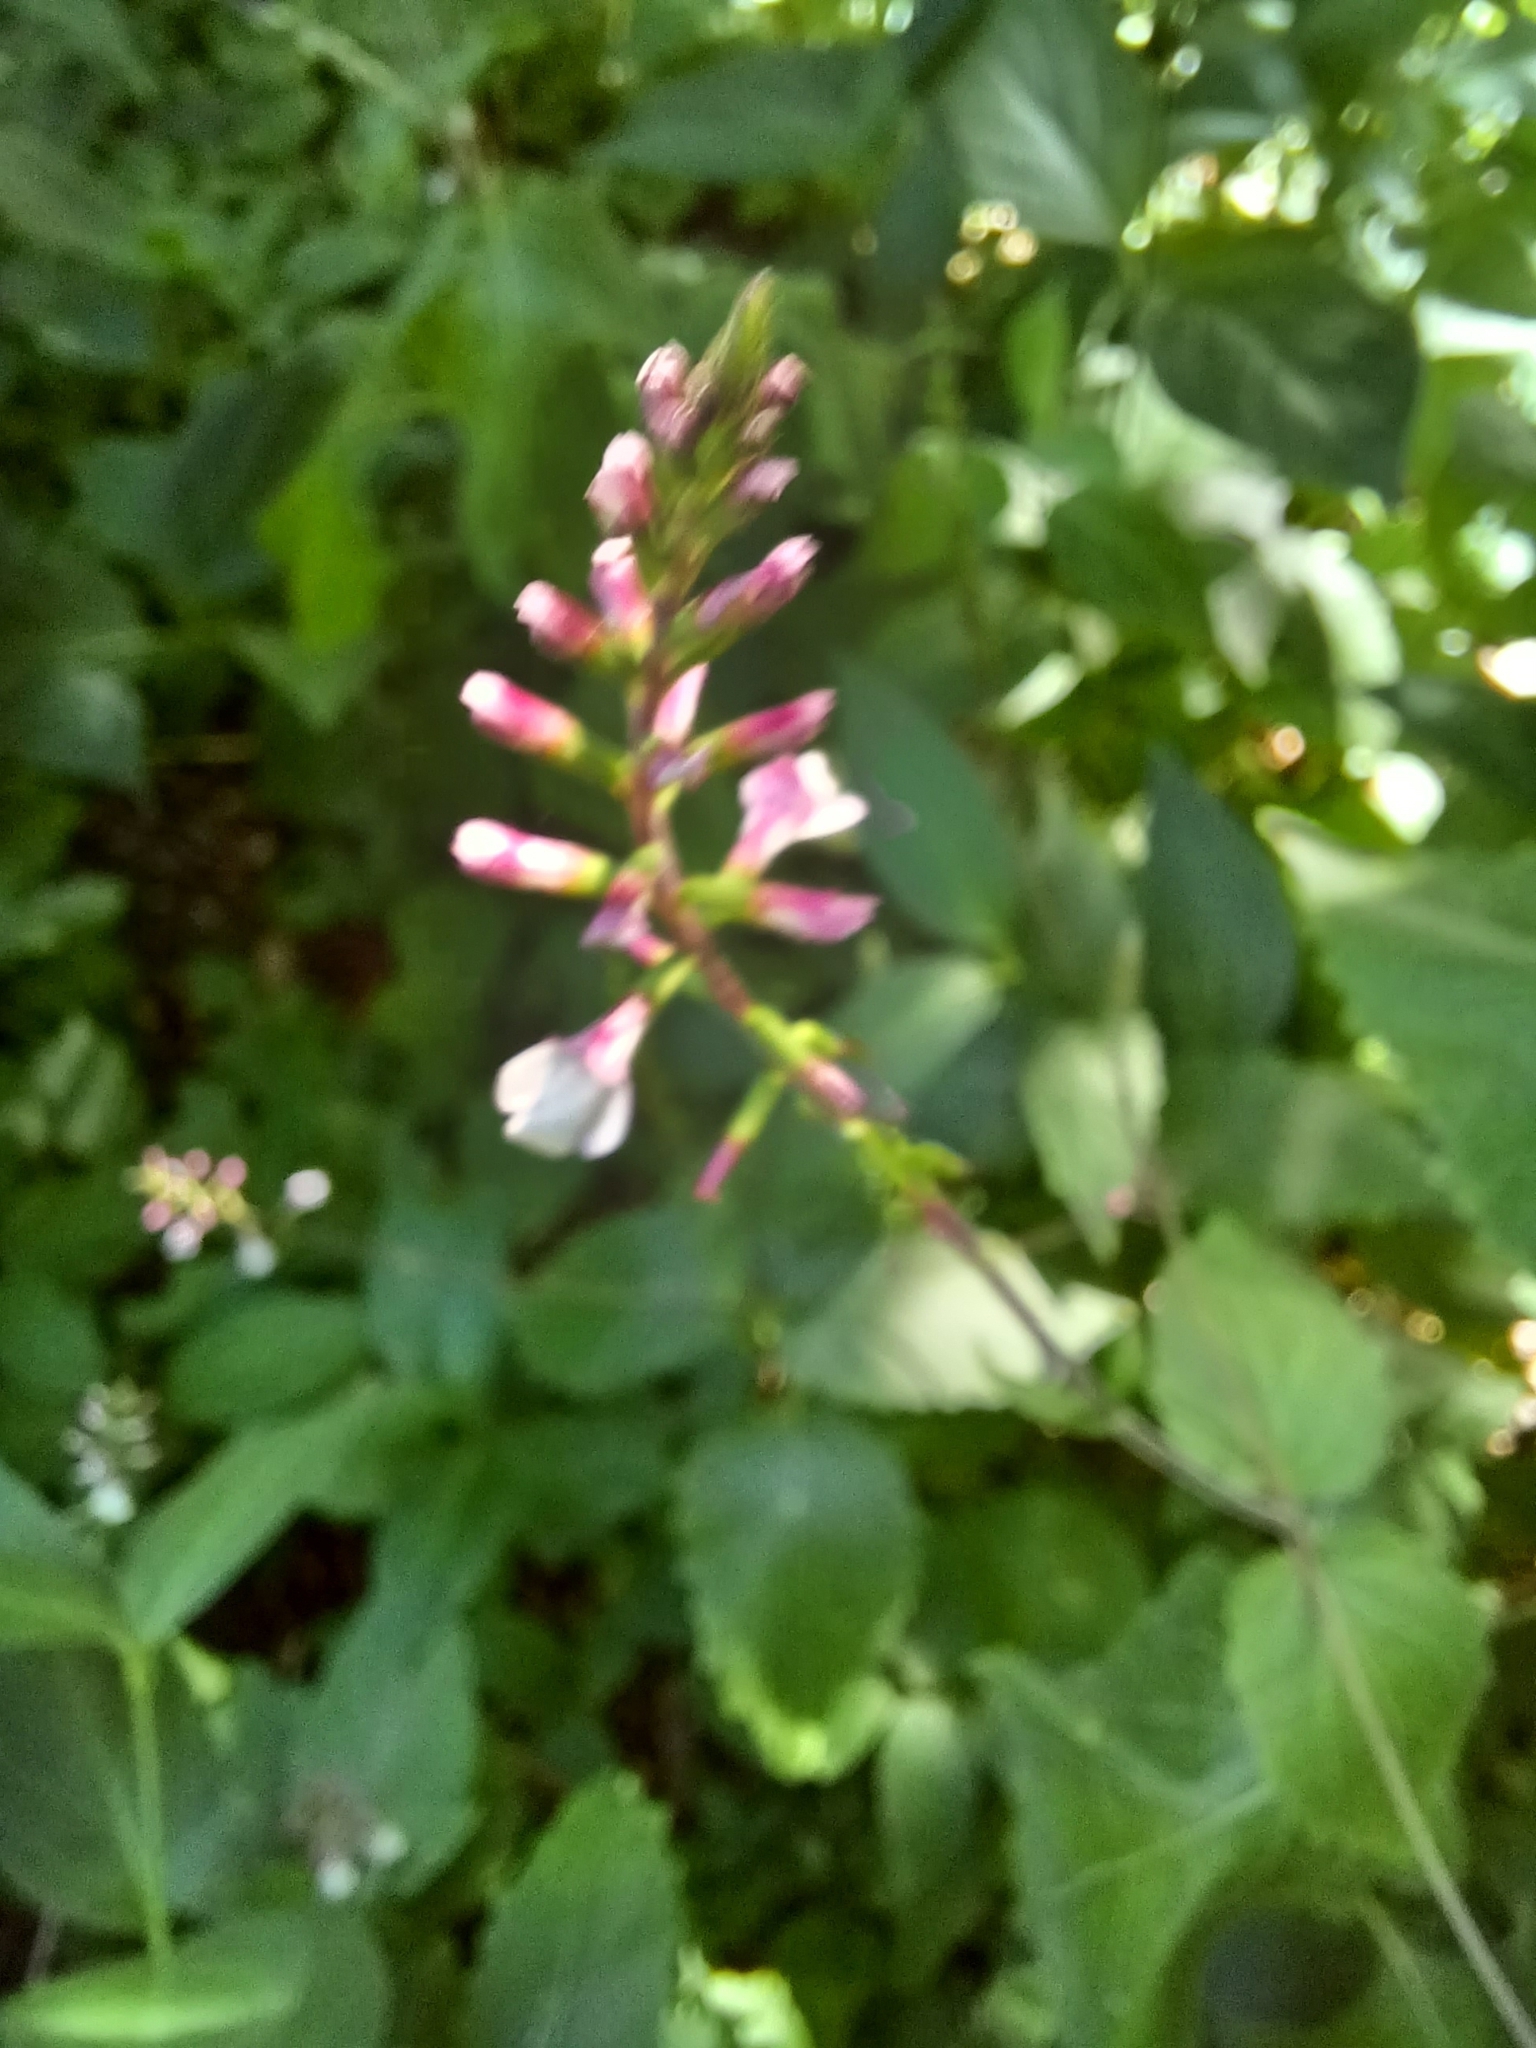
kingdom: Plantae
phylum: Tracheophyta
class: Magnoliopsida
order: Lamiales
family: Phrymaceae
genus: Phryma
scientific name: Phryma leptostachya
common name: American lopseed
